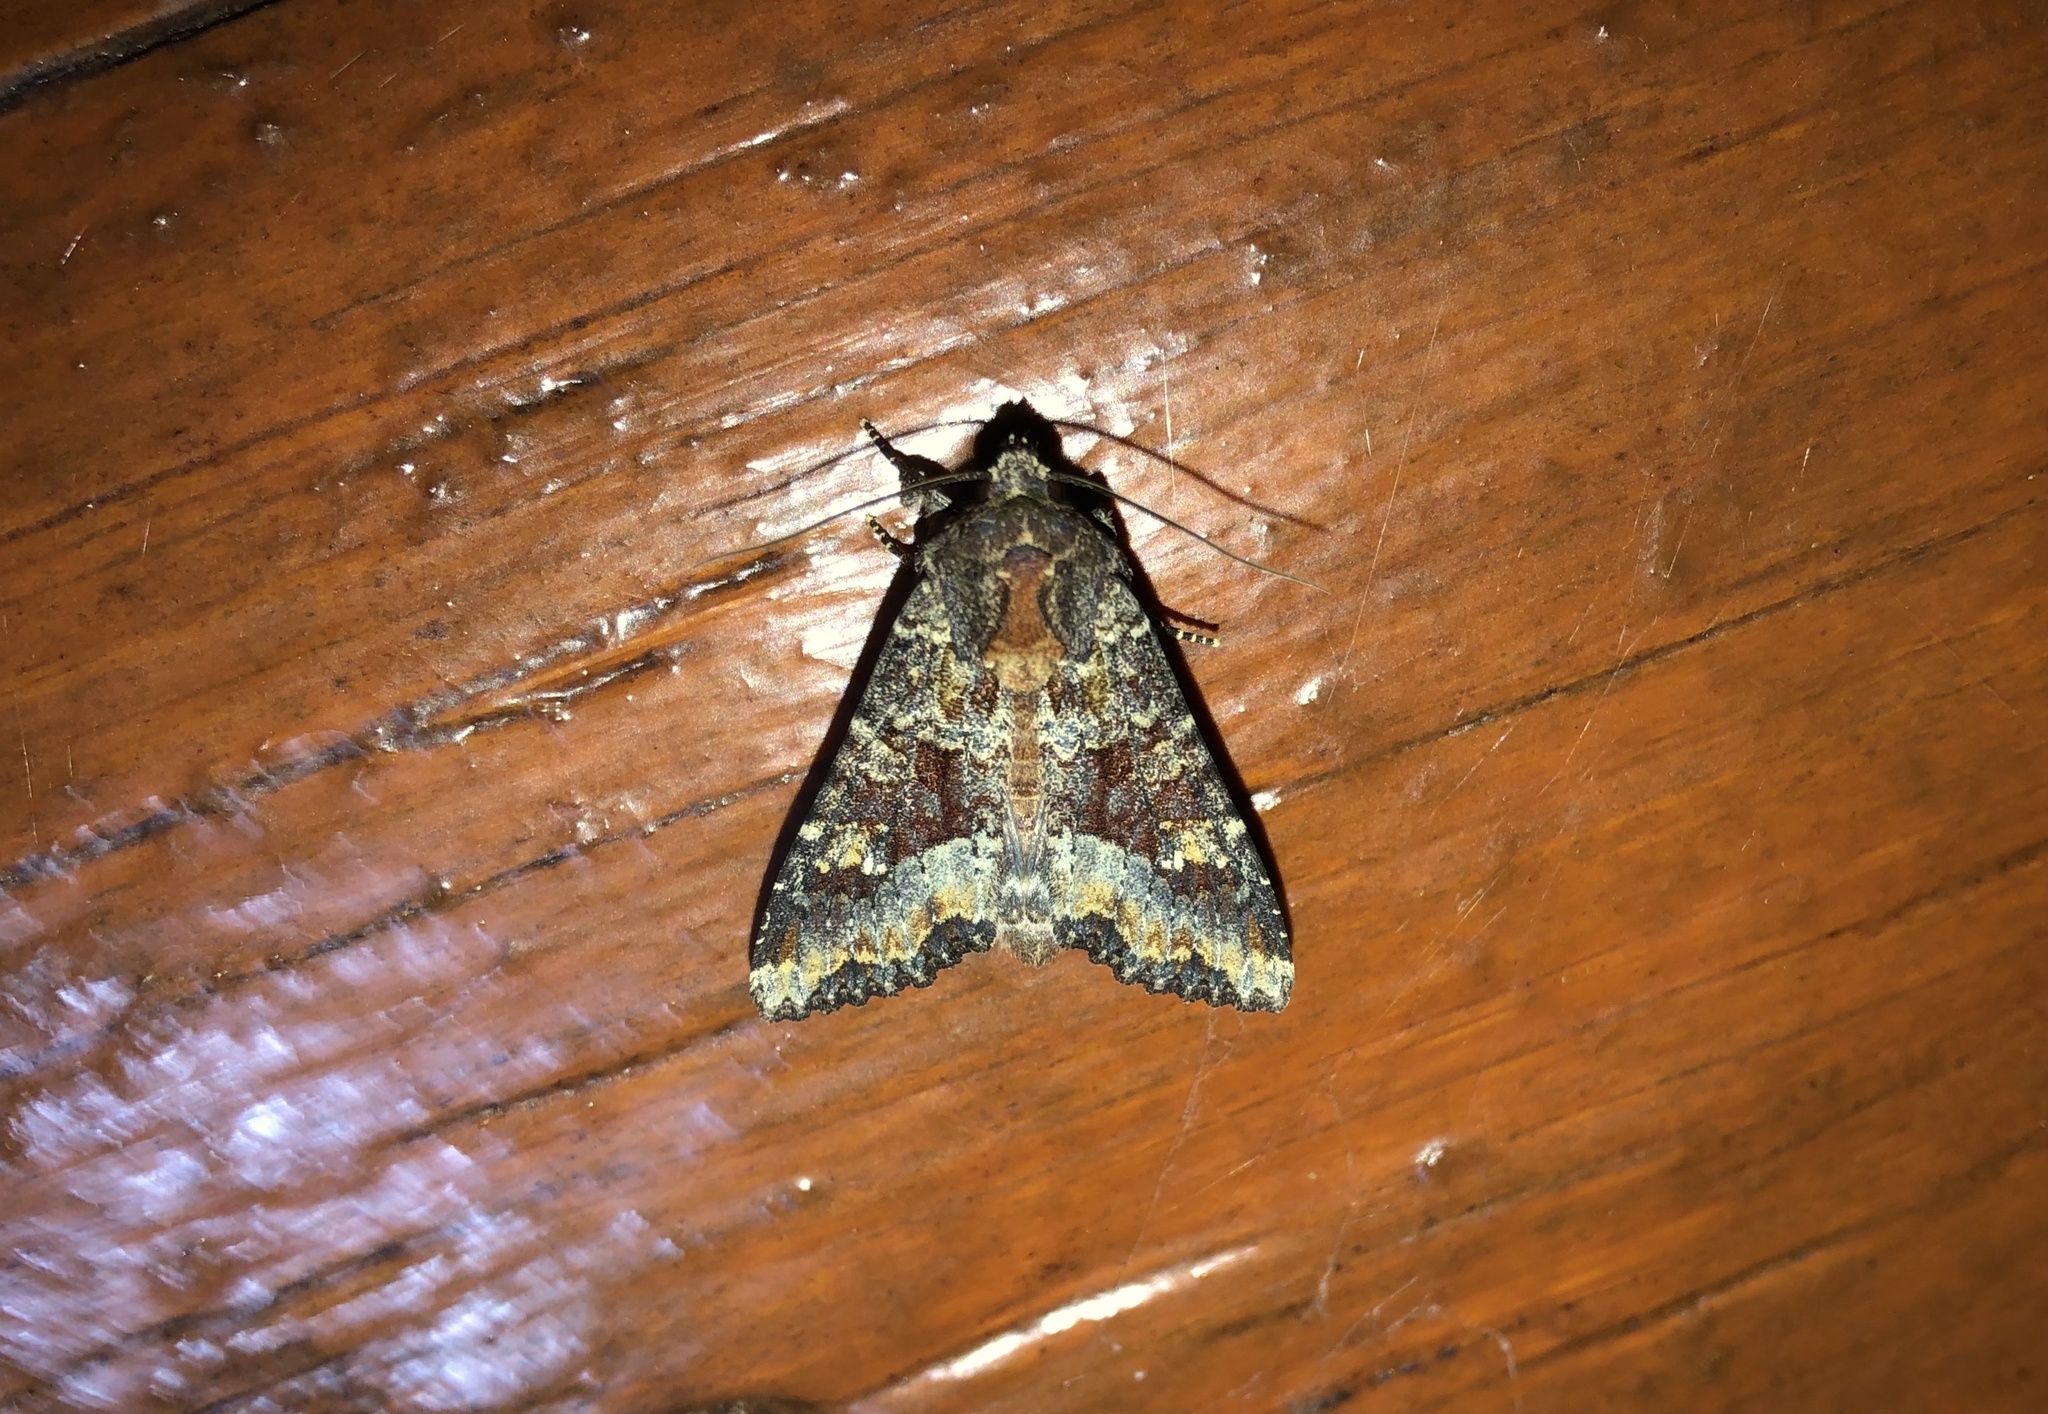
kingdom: Animalia
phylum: Arthropoda
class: Insecta
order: Lepidoptera
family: Noctuidae
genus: Apamea
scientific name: Apamea amputatrix
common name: Yellow-headed cutworm moth
